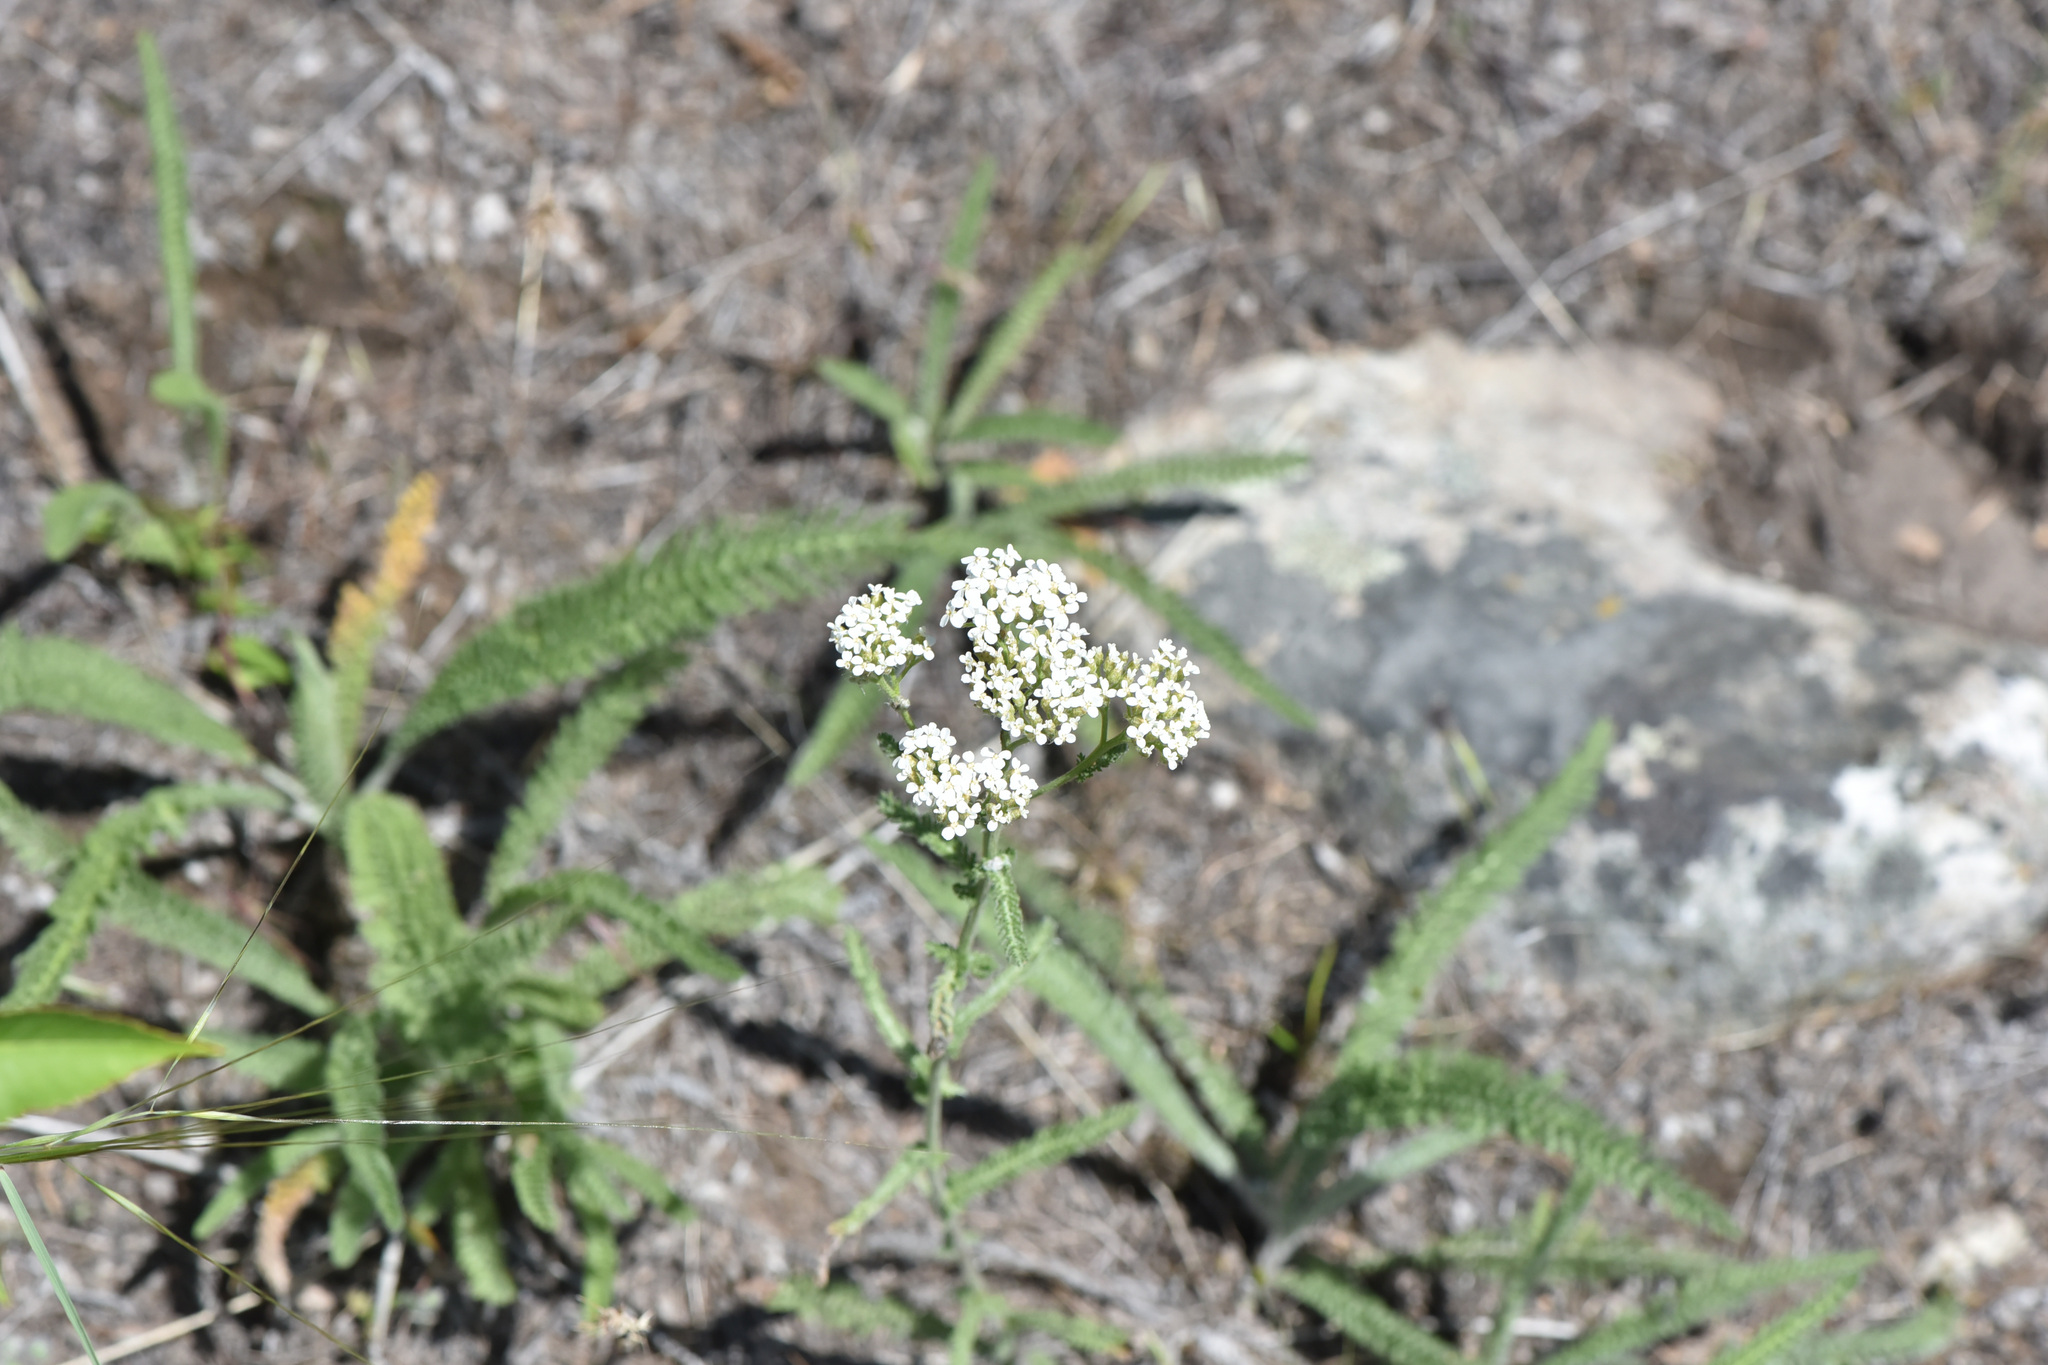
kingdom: Plantae
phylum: Tracheophyta
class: Magnoliopsida
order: Asterales
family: Asteraceae
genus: Achillea
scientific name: Achillea millefolium
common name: Yarrow
